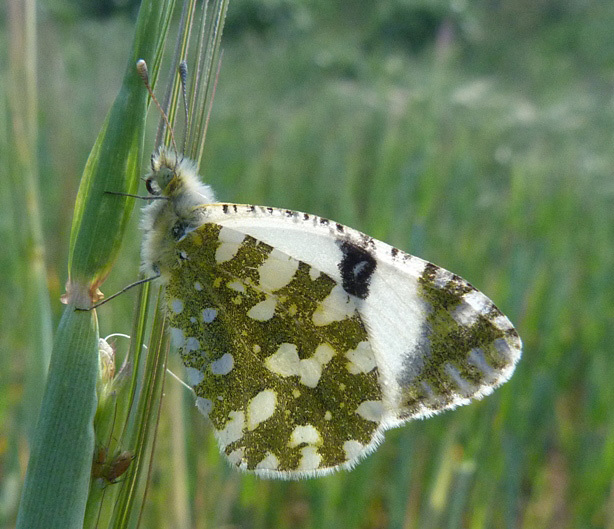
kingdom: Animalia
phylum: Arthropoda
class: Insecta
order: Lepidoptera
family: Pieridae
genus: Euchloe
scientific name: Euchloe crameri
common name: Western dappled white
